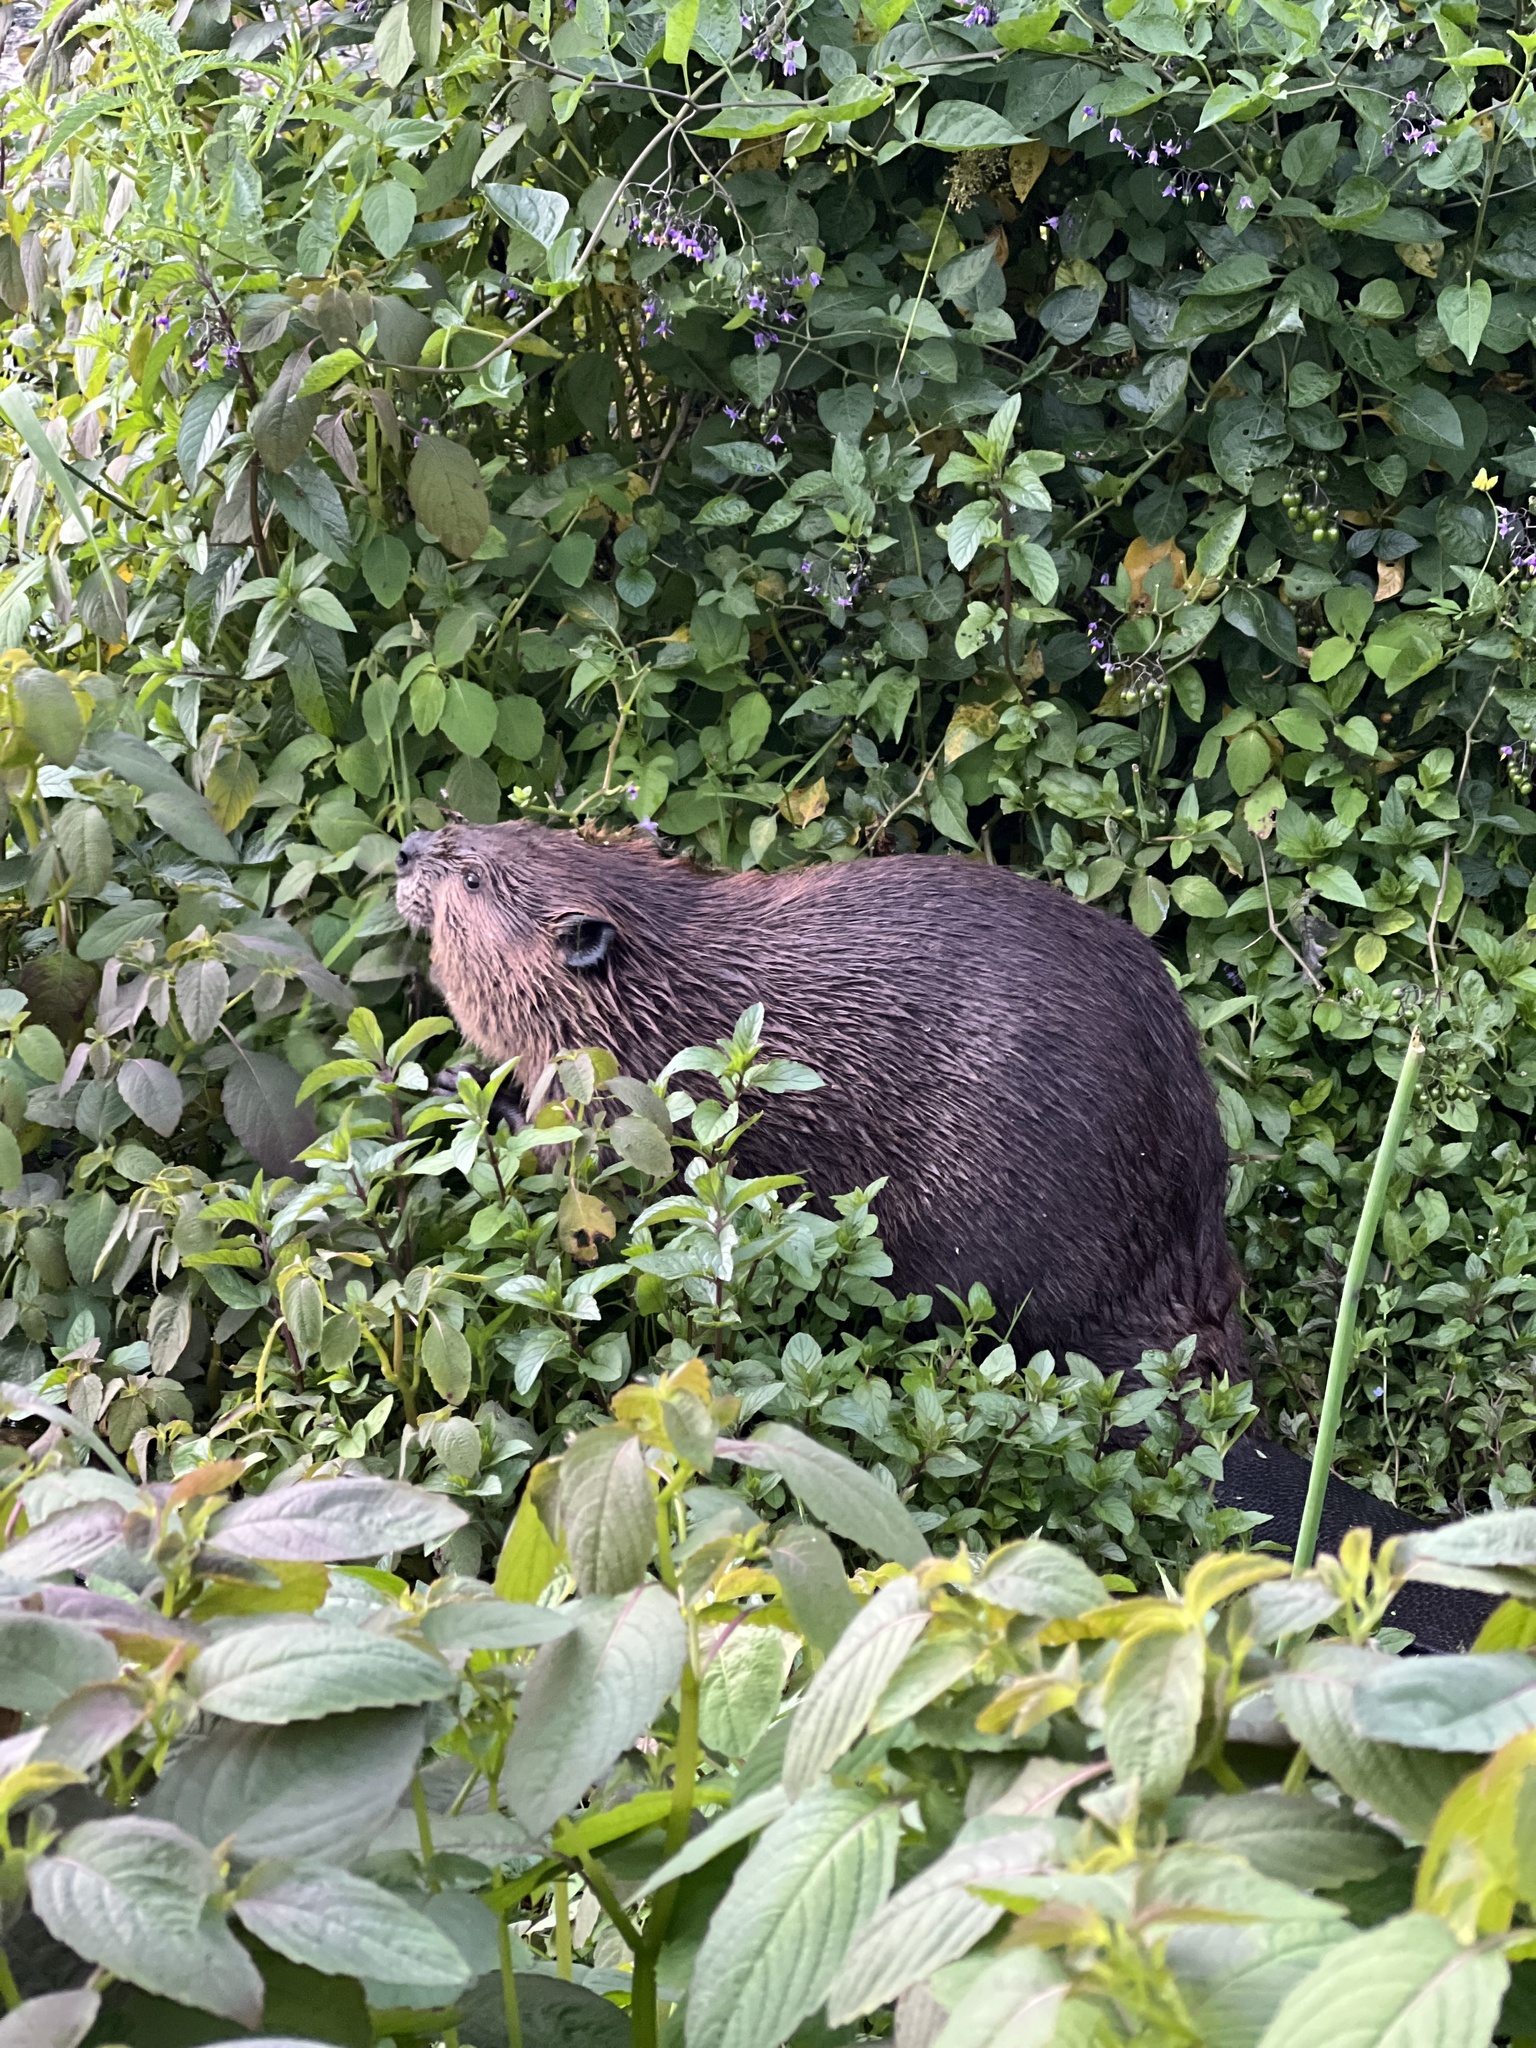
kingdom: Animalia
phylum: Chordata
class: Mammalia
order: Rodentia
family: Castoridae
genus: Castor
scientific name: Castor canadensis
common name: American beaver
